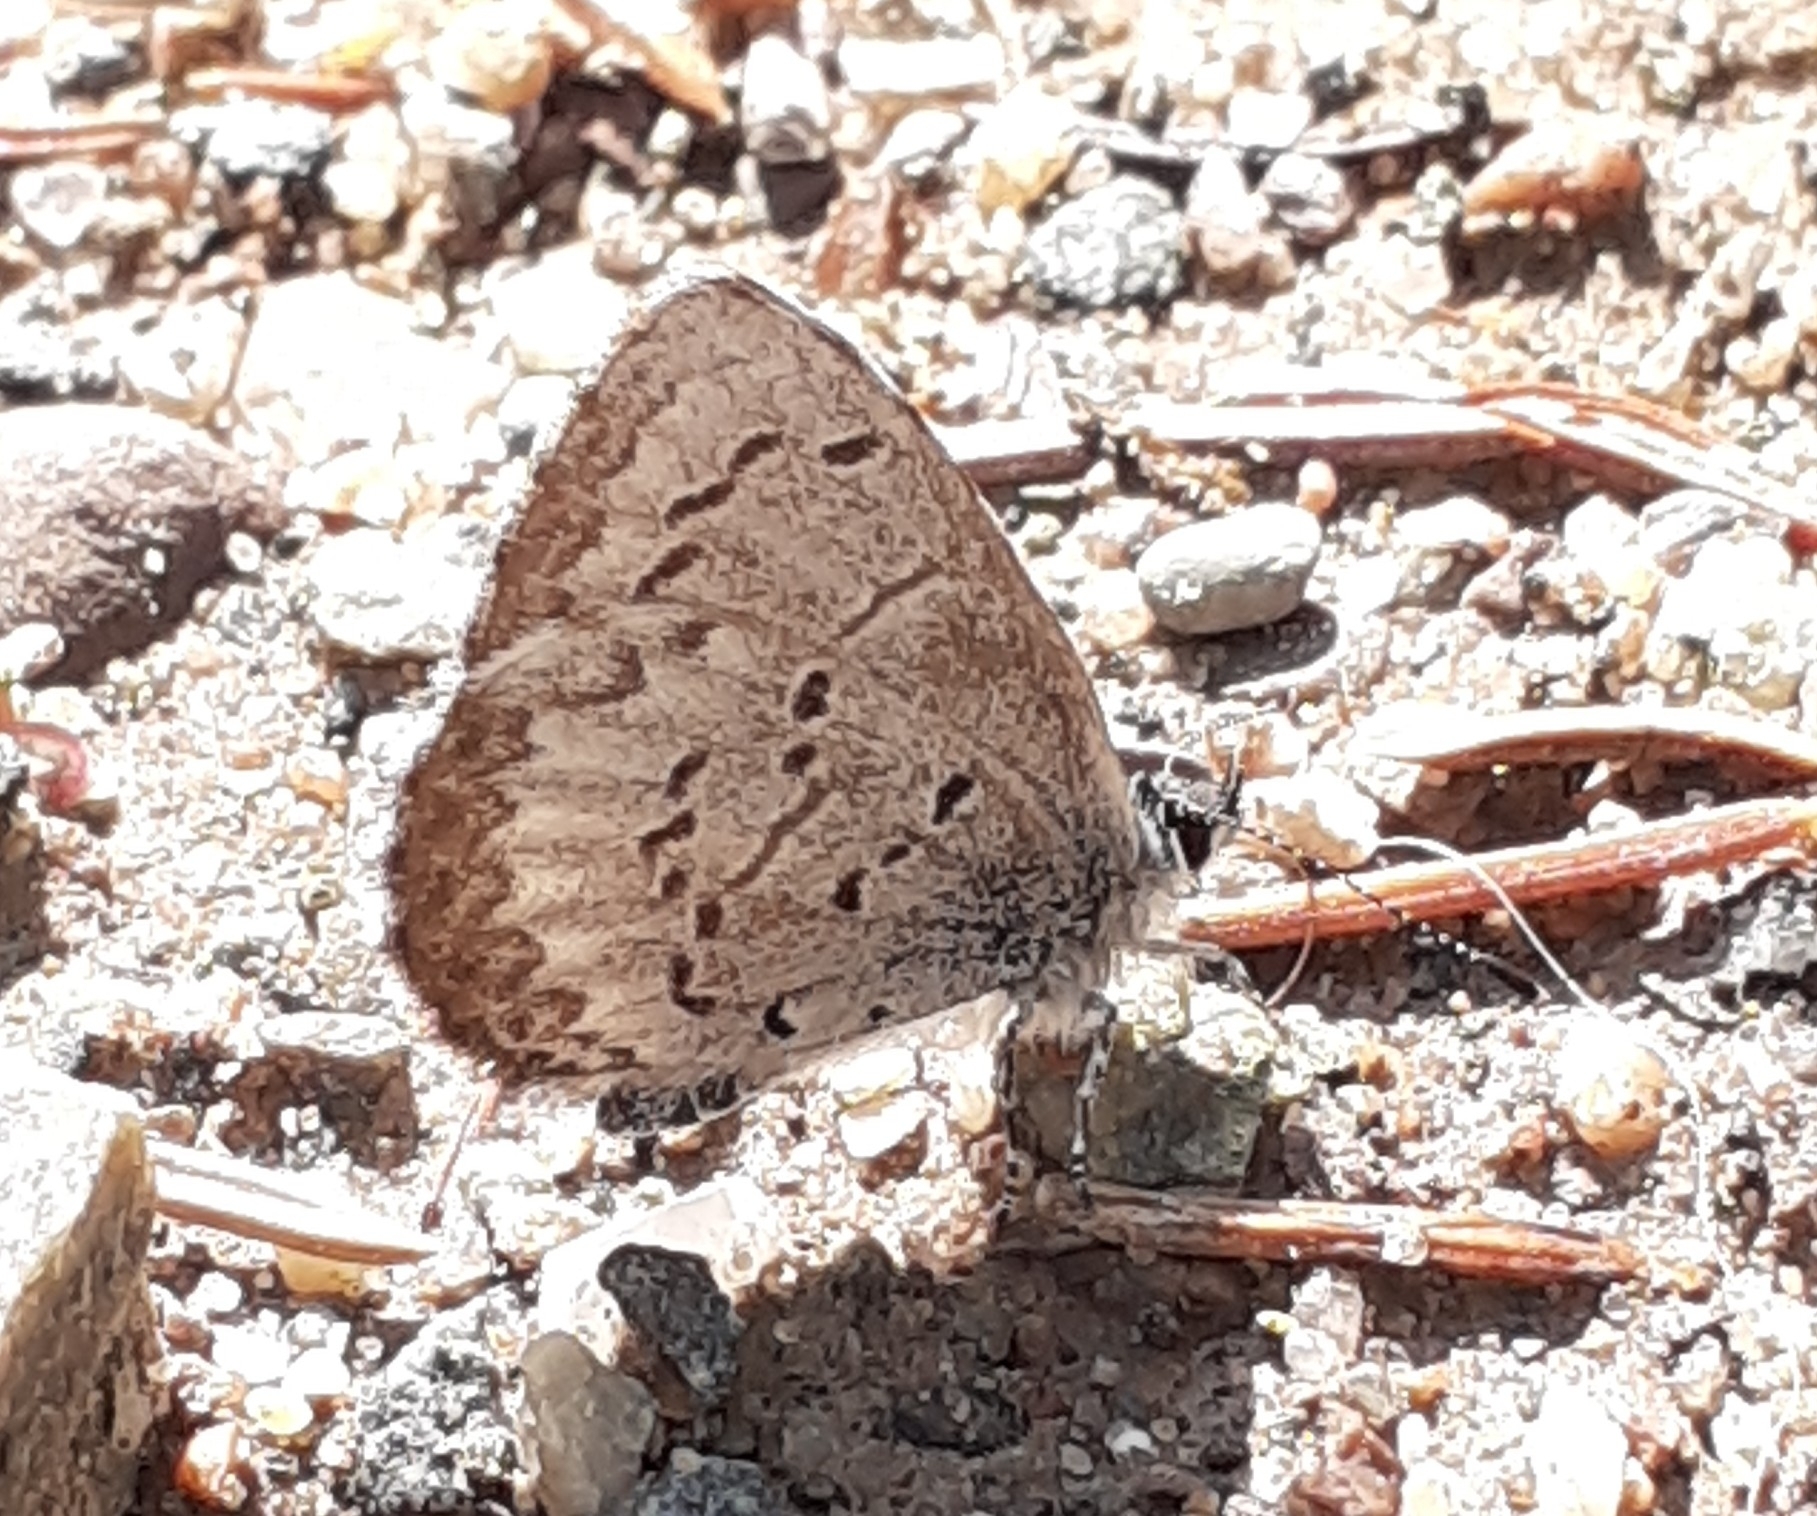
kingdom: Animalia
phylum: Arthropoda
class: Insecta
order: Lepidoptera
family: Lycaenidae
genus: Celastrina
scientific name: Celastrina lucia
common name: Lucia azure
